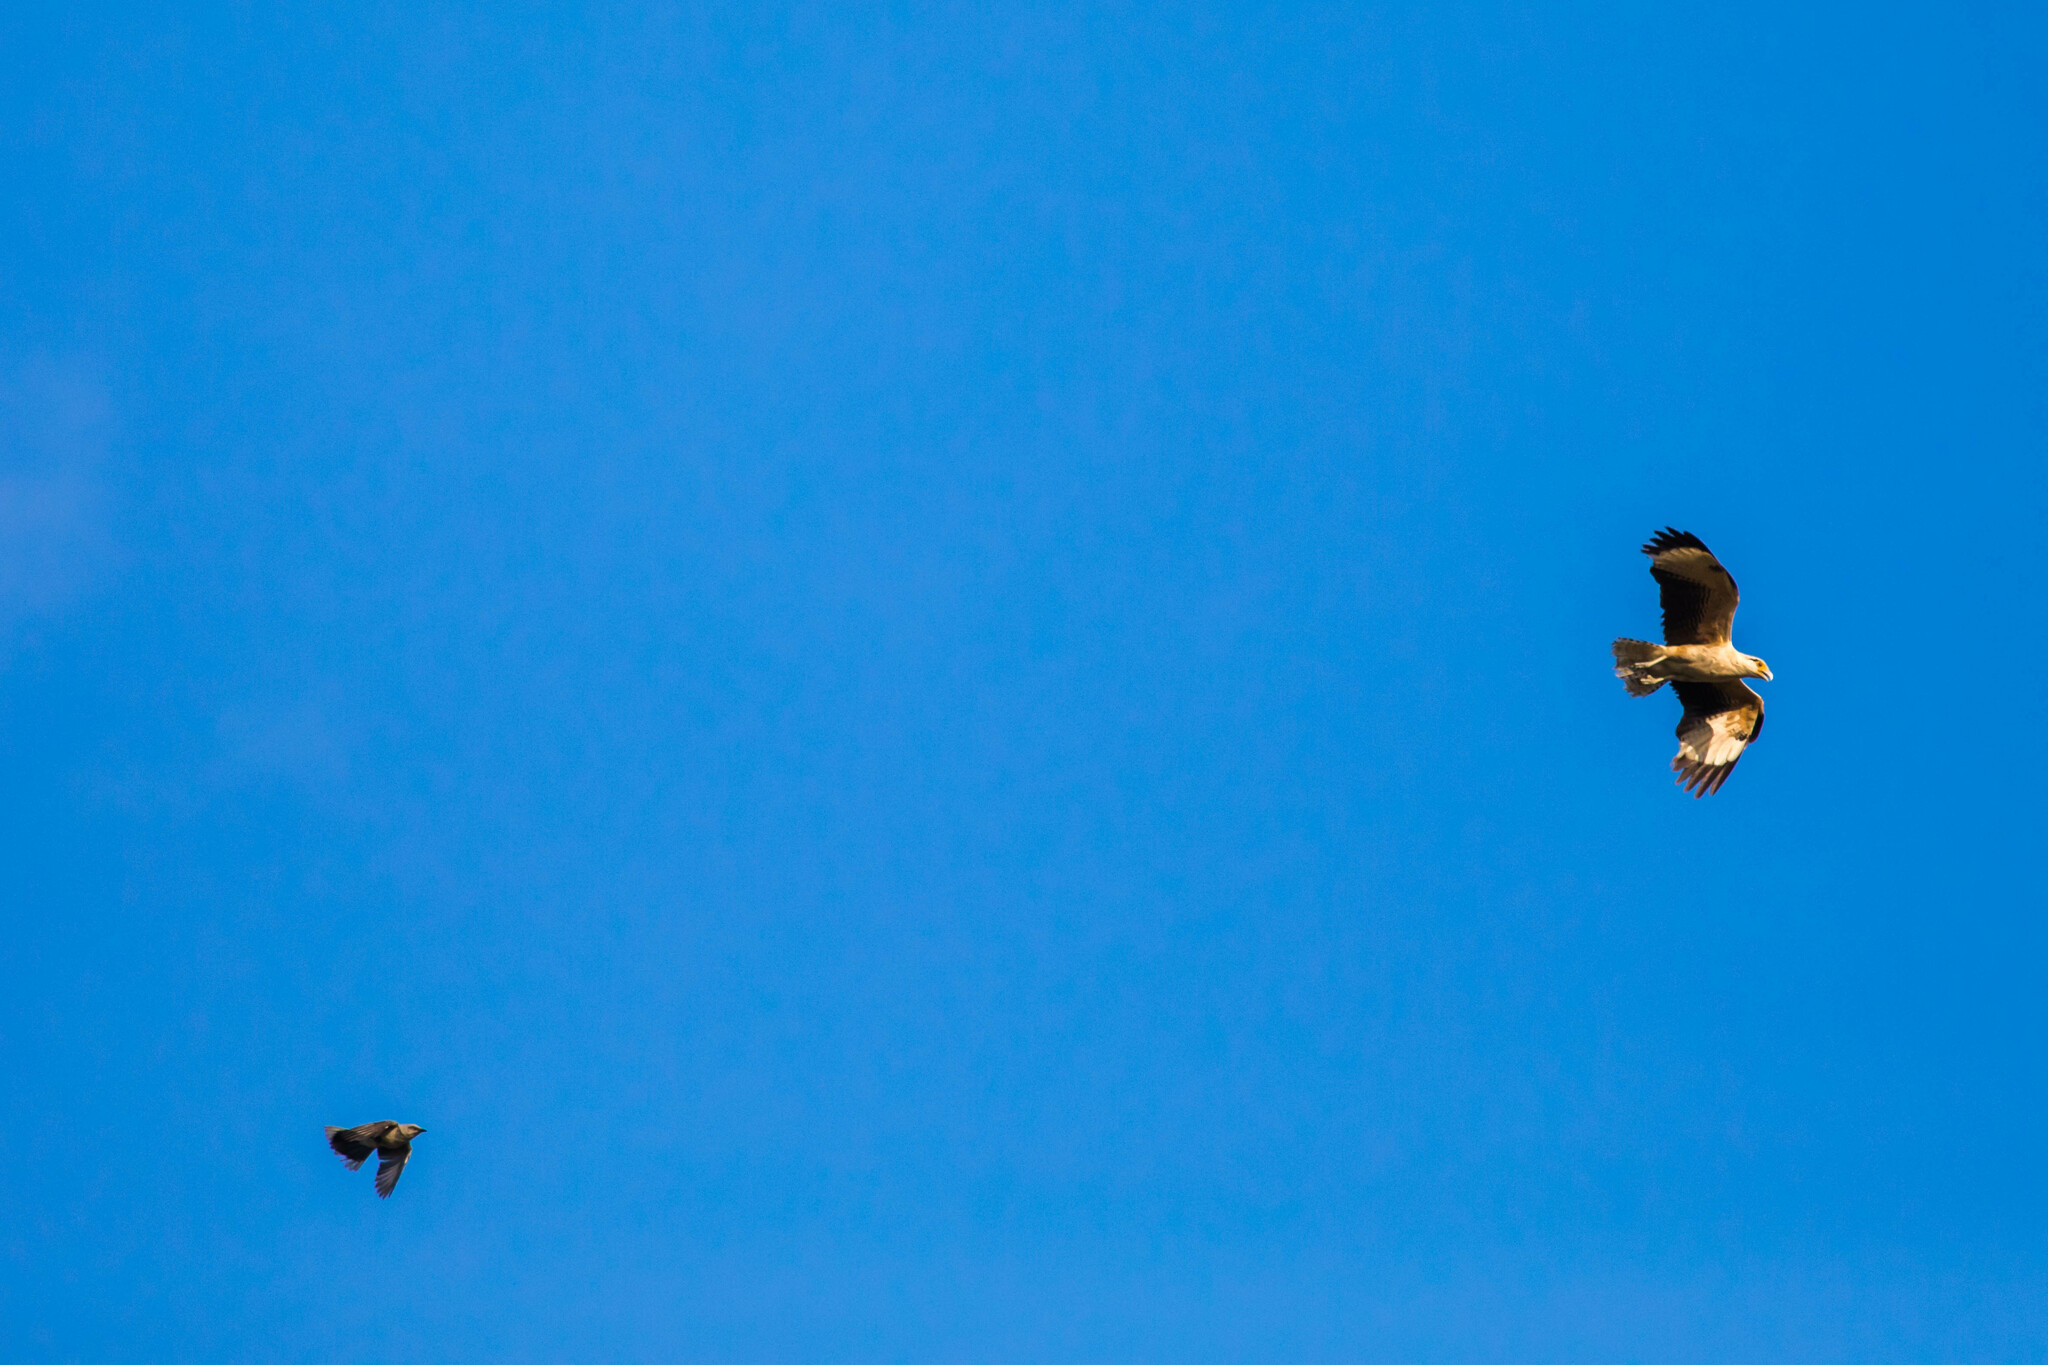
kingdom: Animalia
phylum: Chordata
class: Aves
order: Falconiformes
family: Falconidae
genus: Daptrius
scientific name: Daptrius
